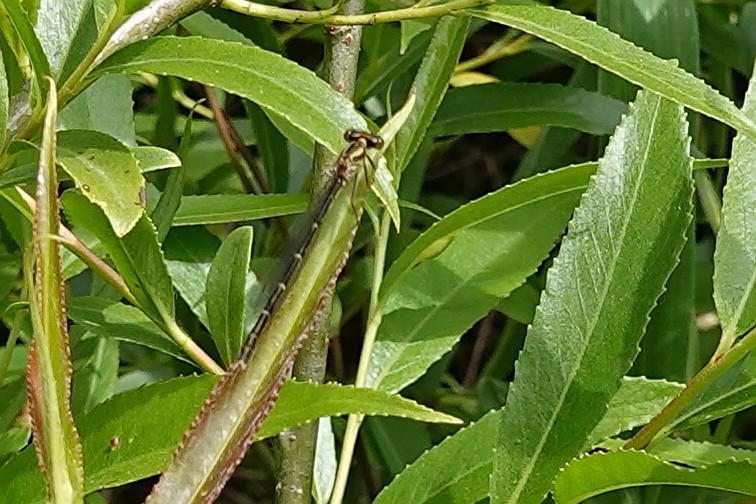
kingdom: Animalia
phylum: Arthropoda
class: Insecta
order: Odonata
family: Coenagrionidae
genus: Xanthocnemis
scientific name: Xanthocnemis zealandica
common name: Common redcoat damselfly
